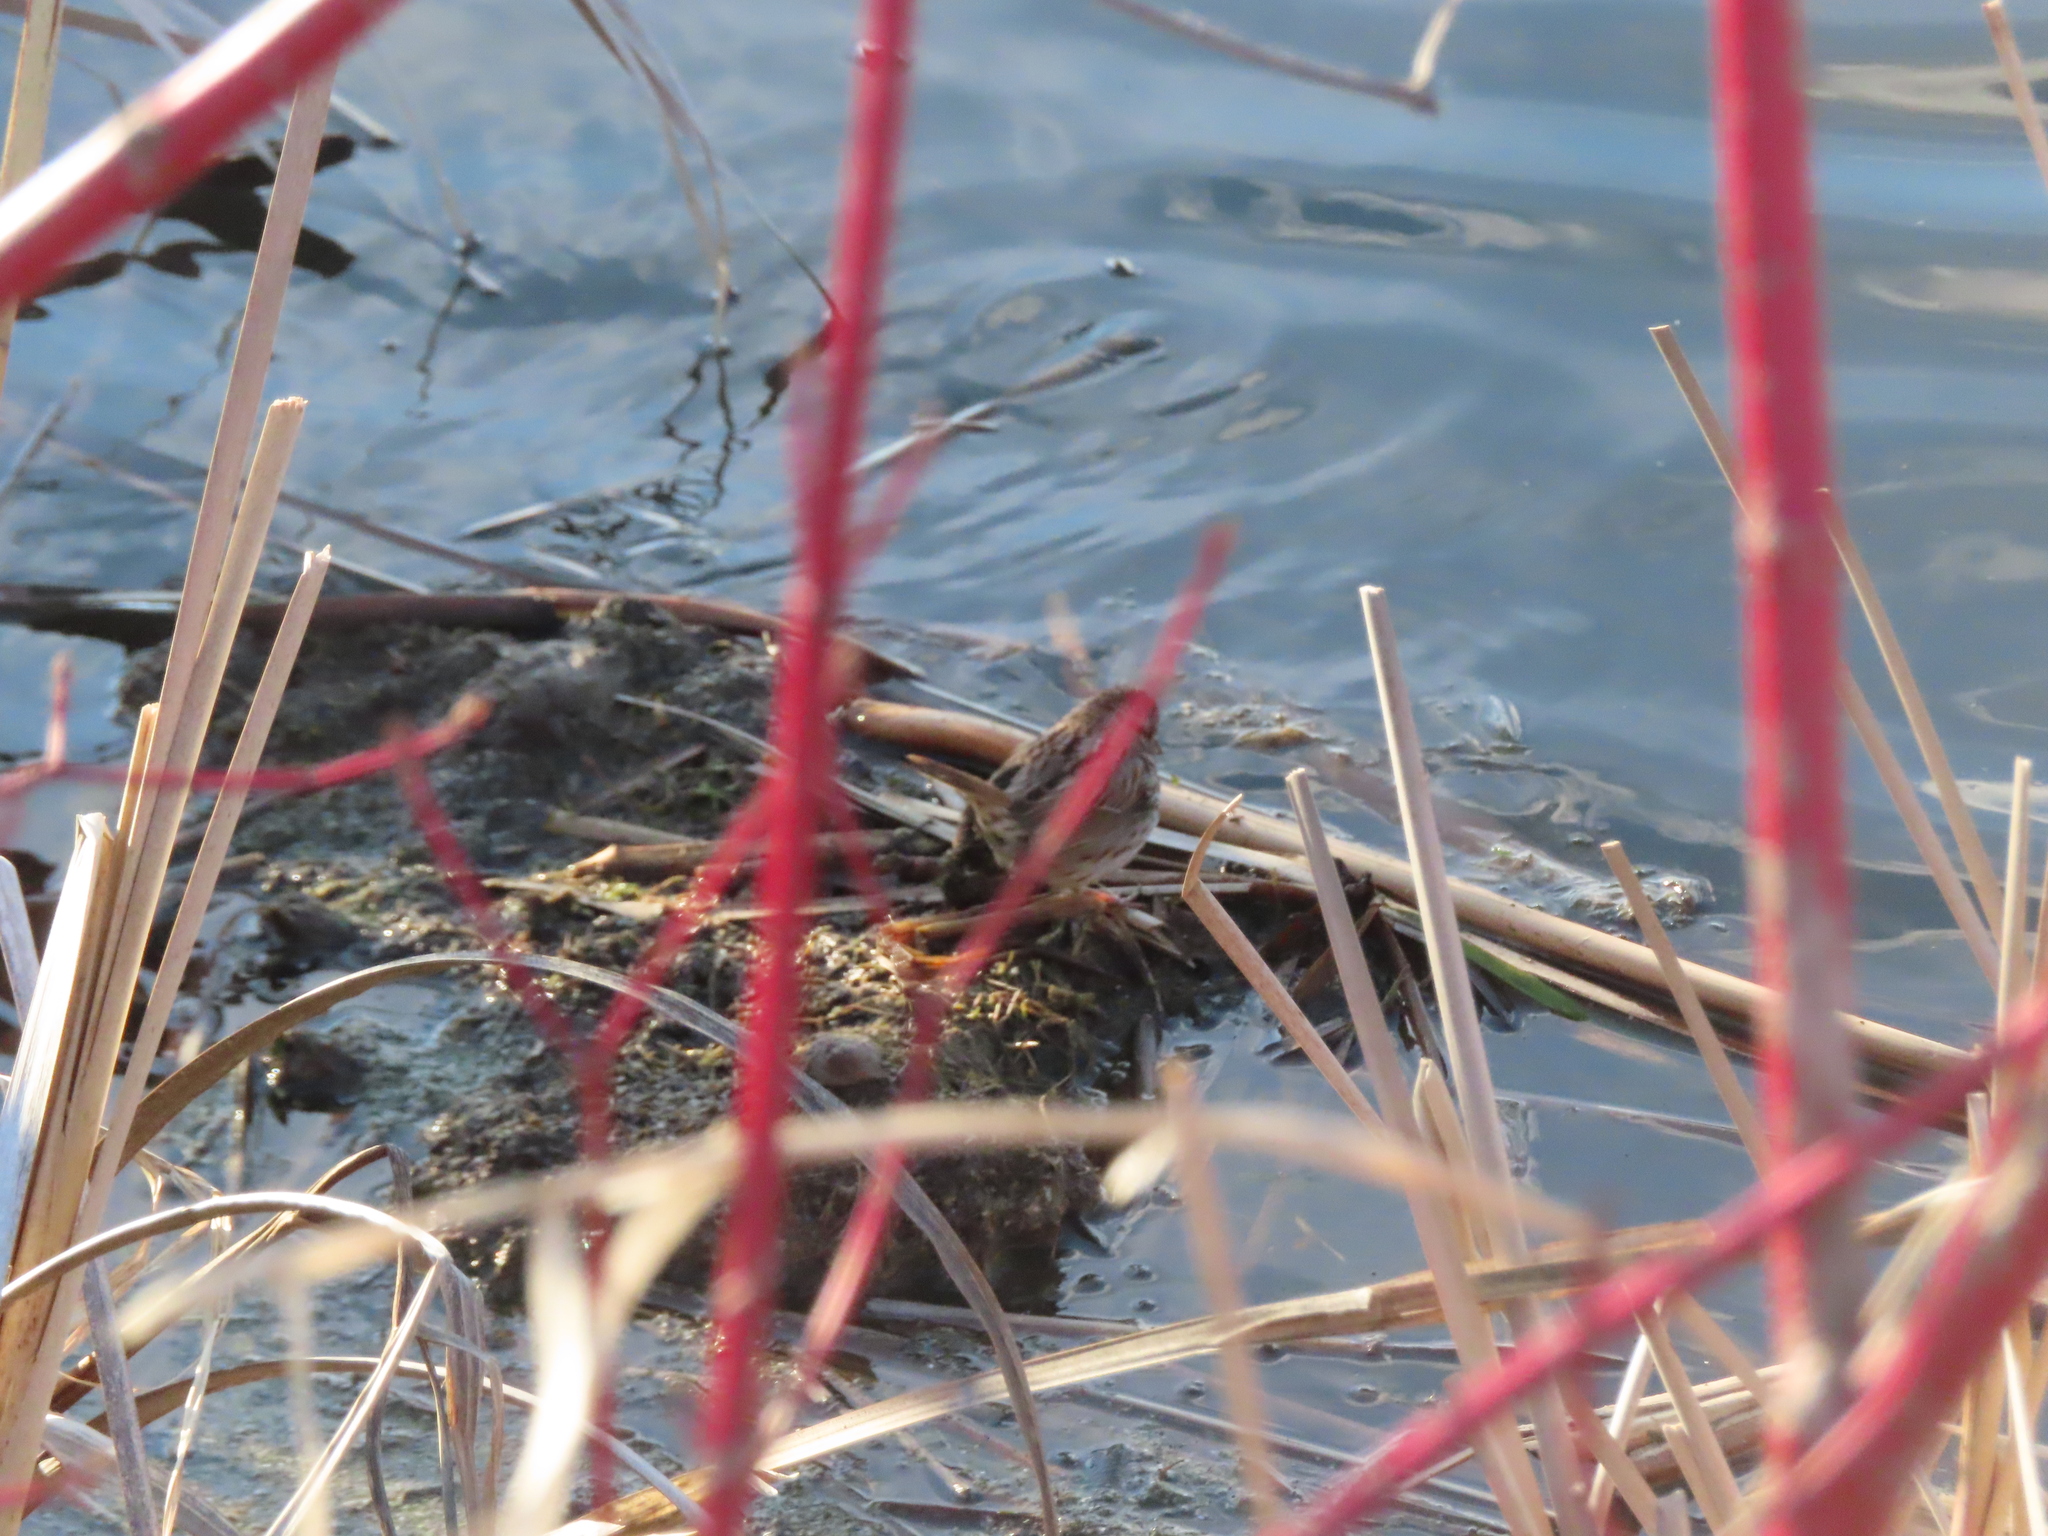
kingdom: Animalia
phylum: Chordata
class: Aves
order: Passeriformes
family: Passerellidae
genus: Melospiza
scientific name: Melospiza melodia
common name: Song sparrow
